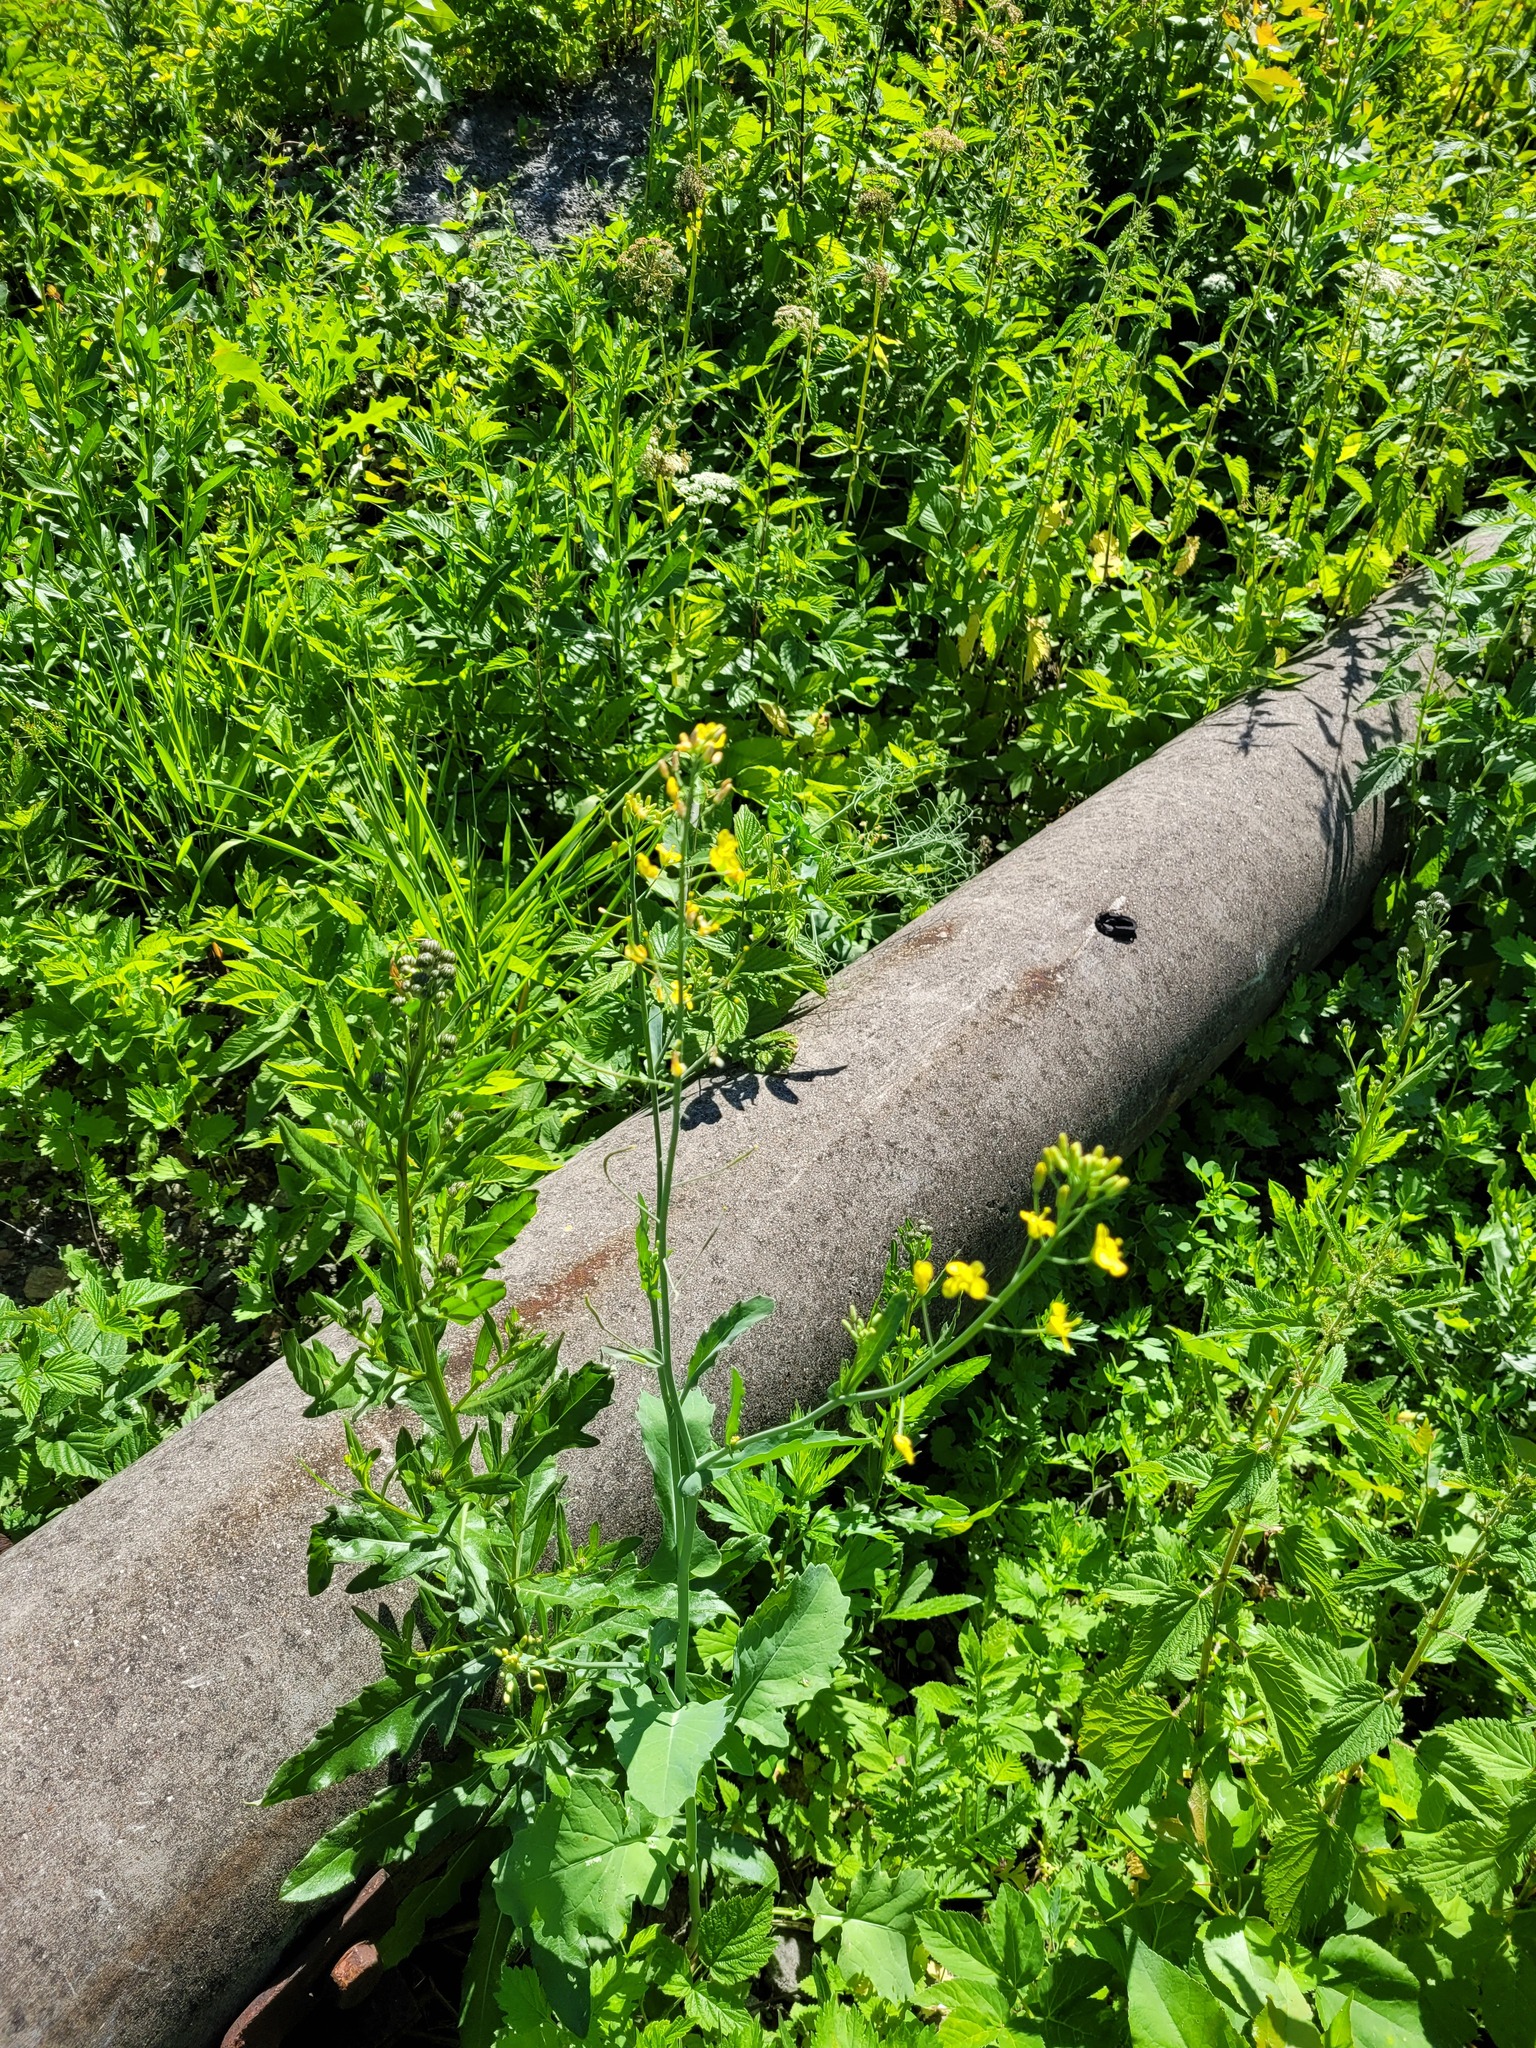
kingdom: Plantae
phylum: Tracheophyta
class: Magnoliopsida
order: Brassicales
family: Brassicaceae
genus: Brassica
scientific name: Brassica napus
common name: Rape
